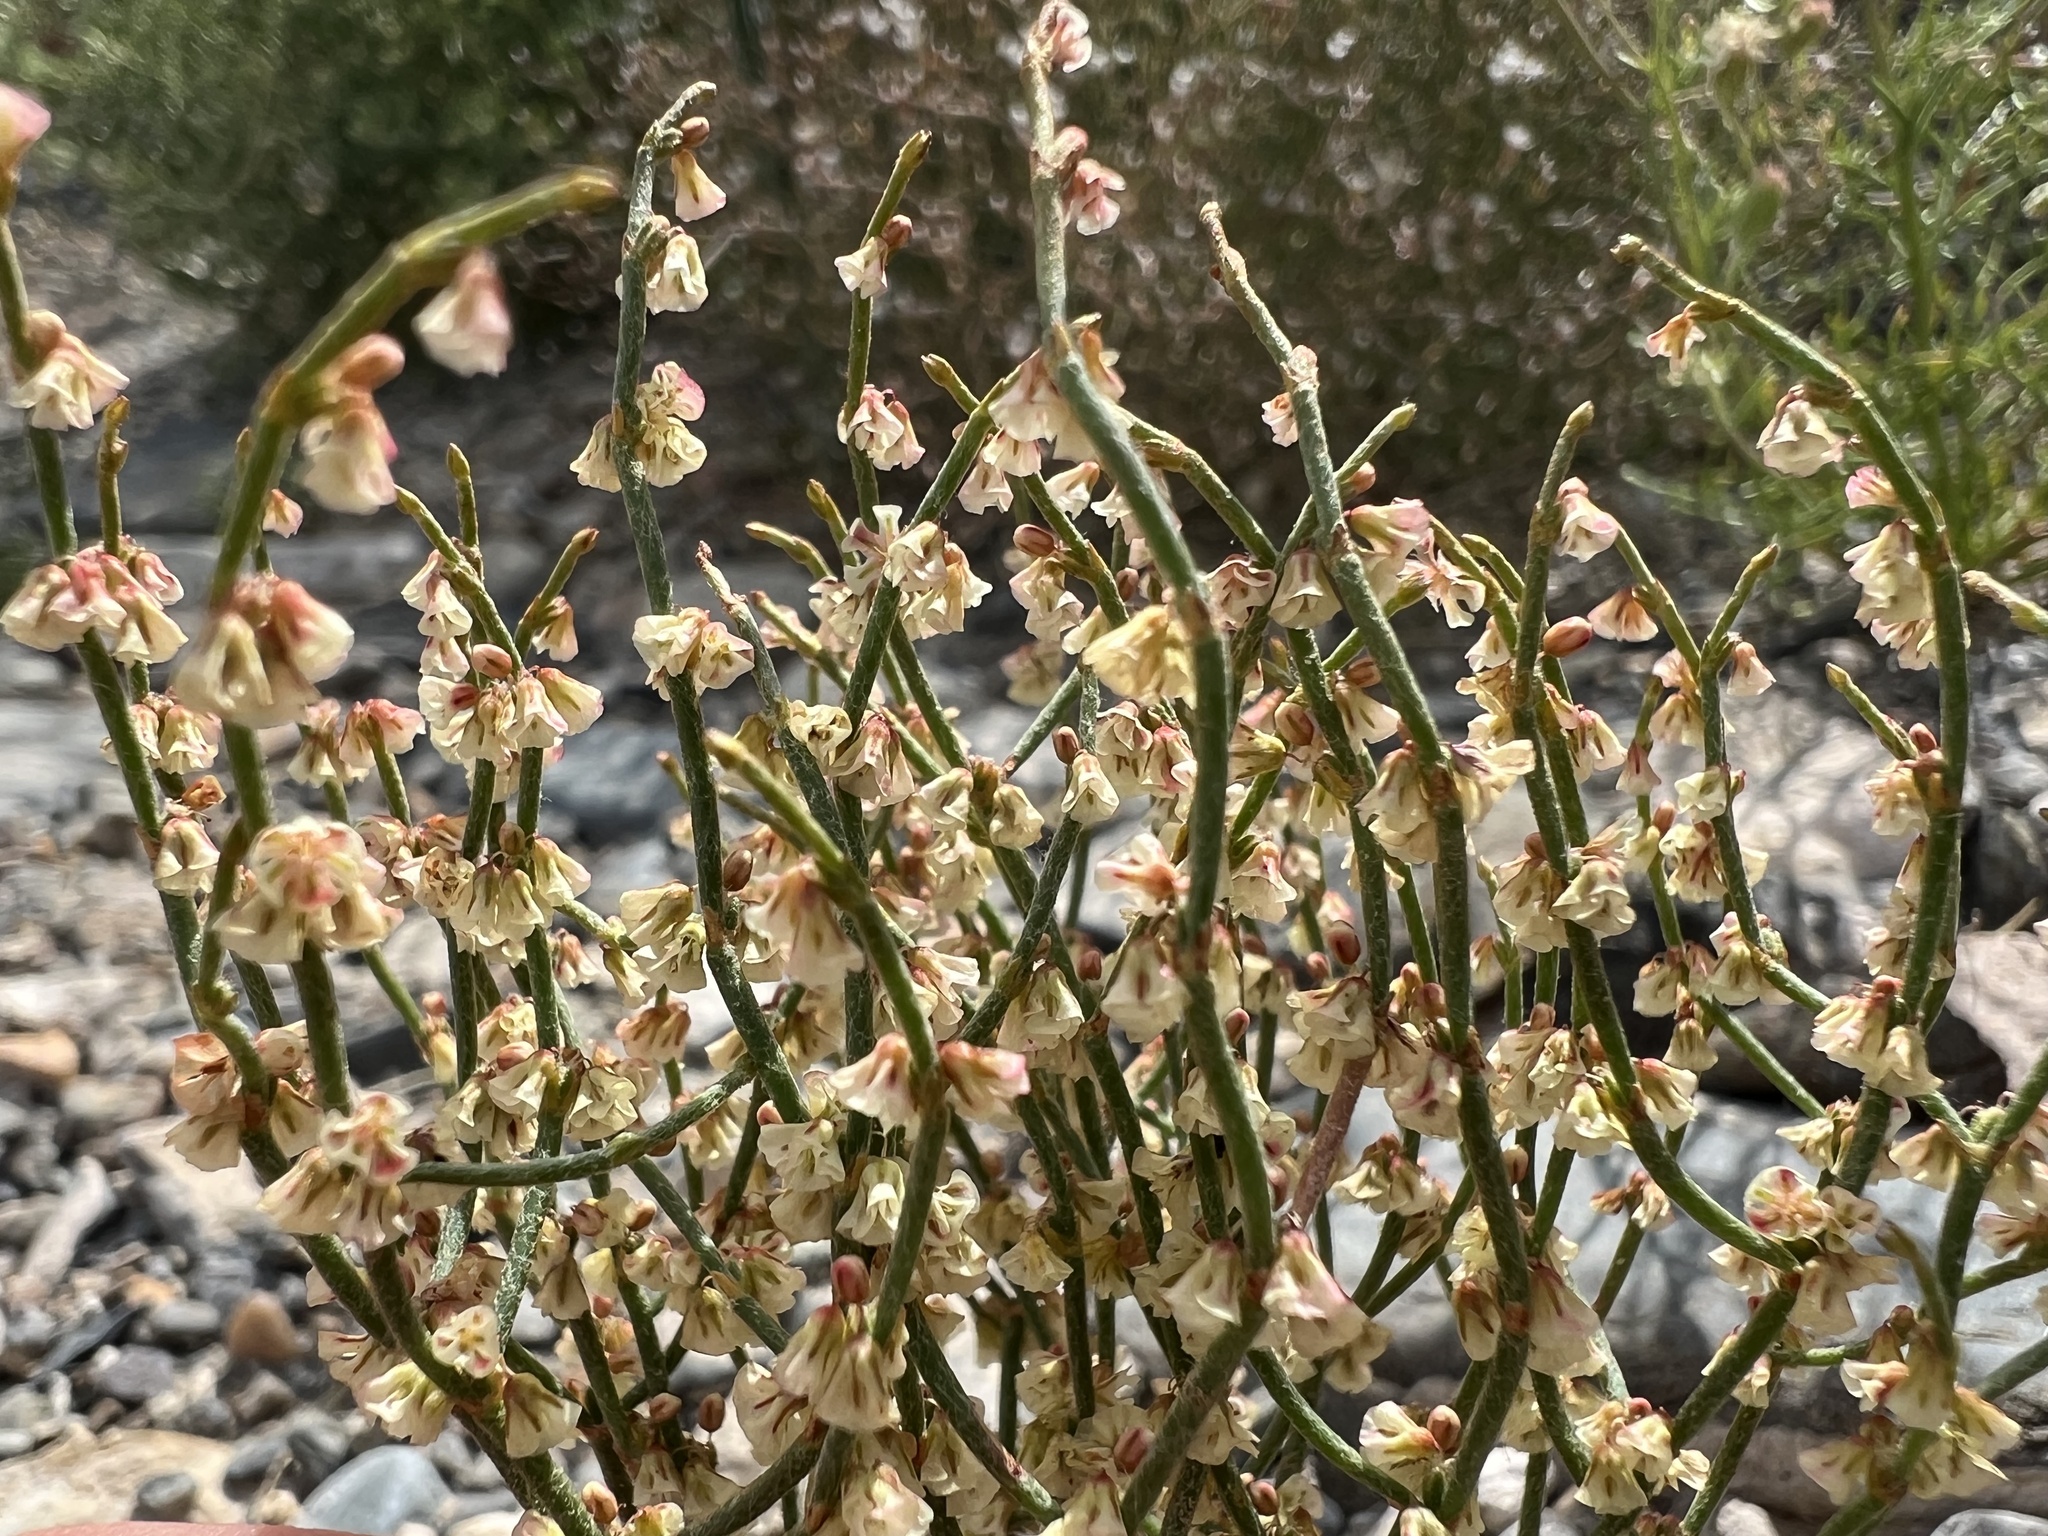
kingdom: Plantae
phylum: Tracheophyta
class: Magnoliopsida
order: Caryophyllales
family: Polygonaceae
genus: Eriogonum
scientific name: Eriogonum nidularium
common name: Bird's-nest wild buckwheat
